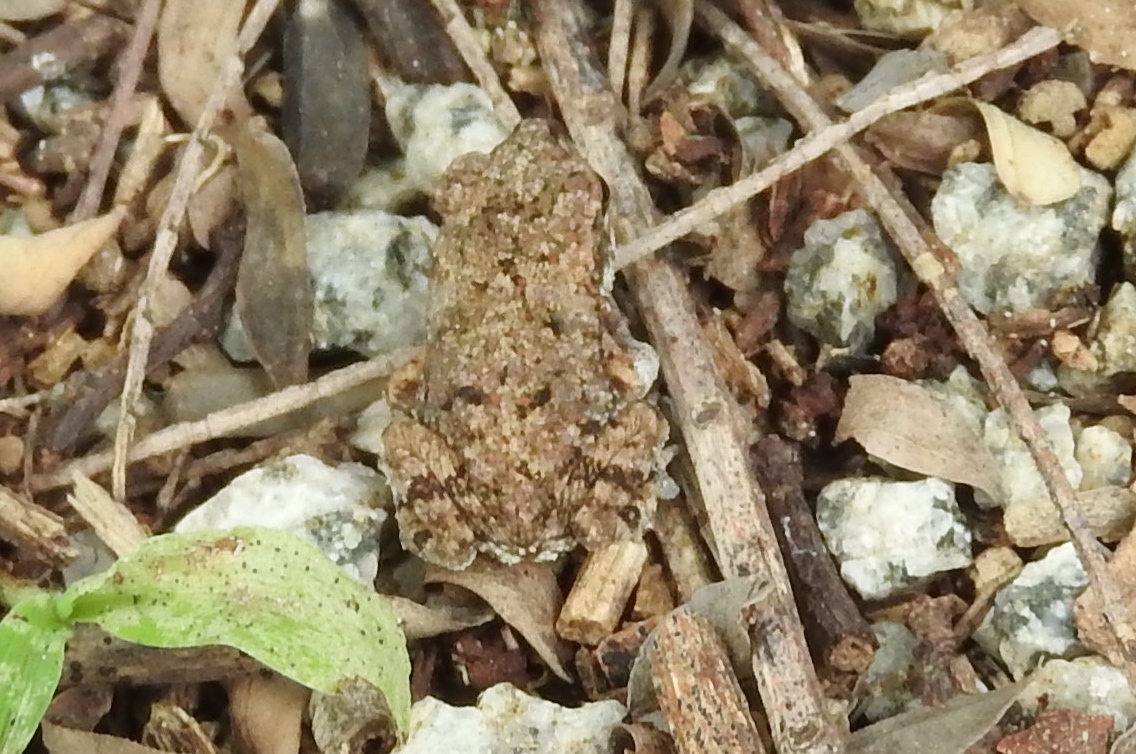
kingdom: Animalia
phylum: Chordata
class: Amphibia
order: Anura
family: Bufonidae
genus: Incilius
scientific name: Incilius marmoreus
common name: Marbled toad
